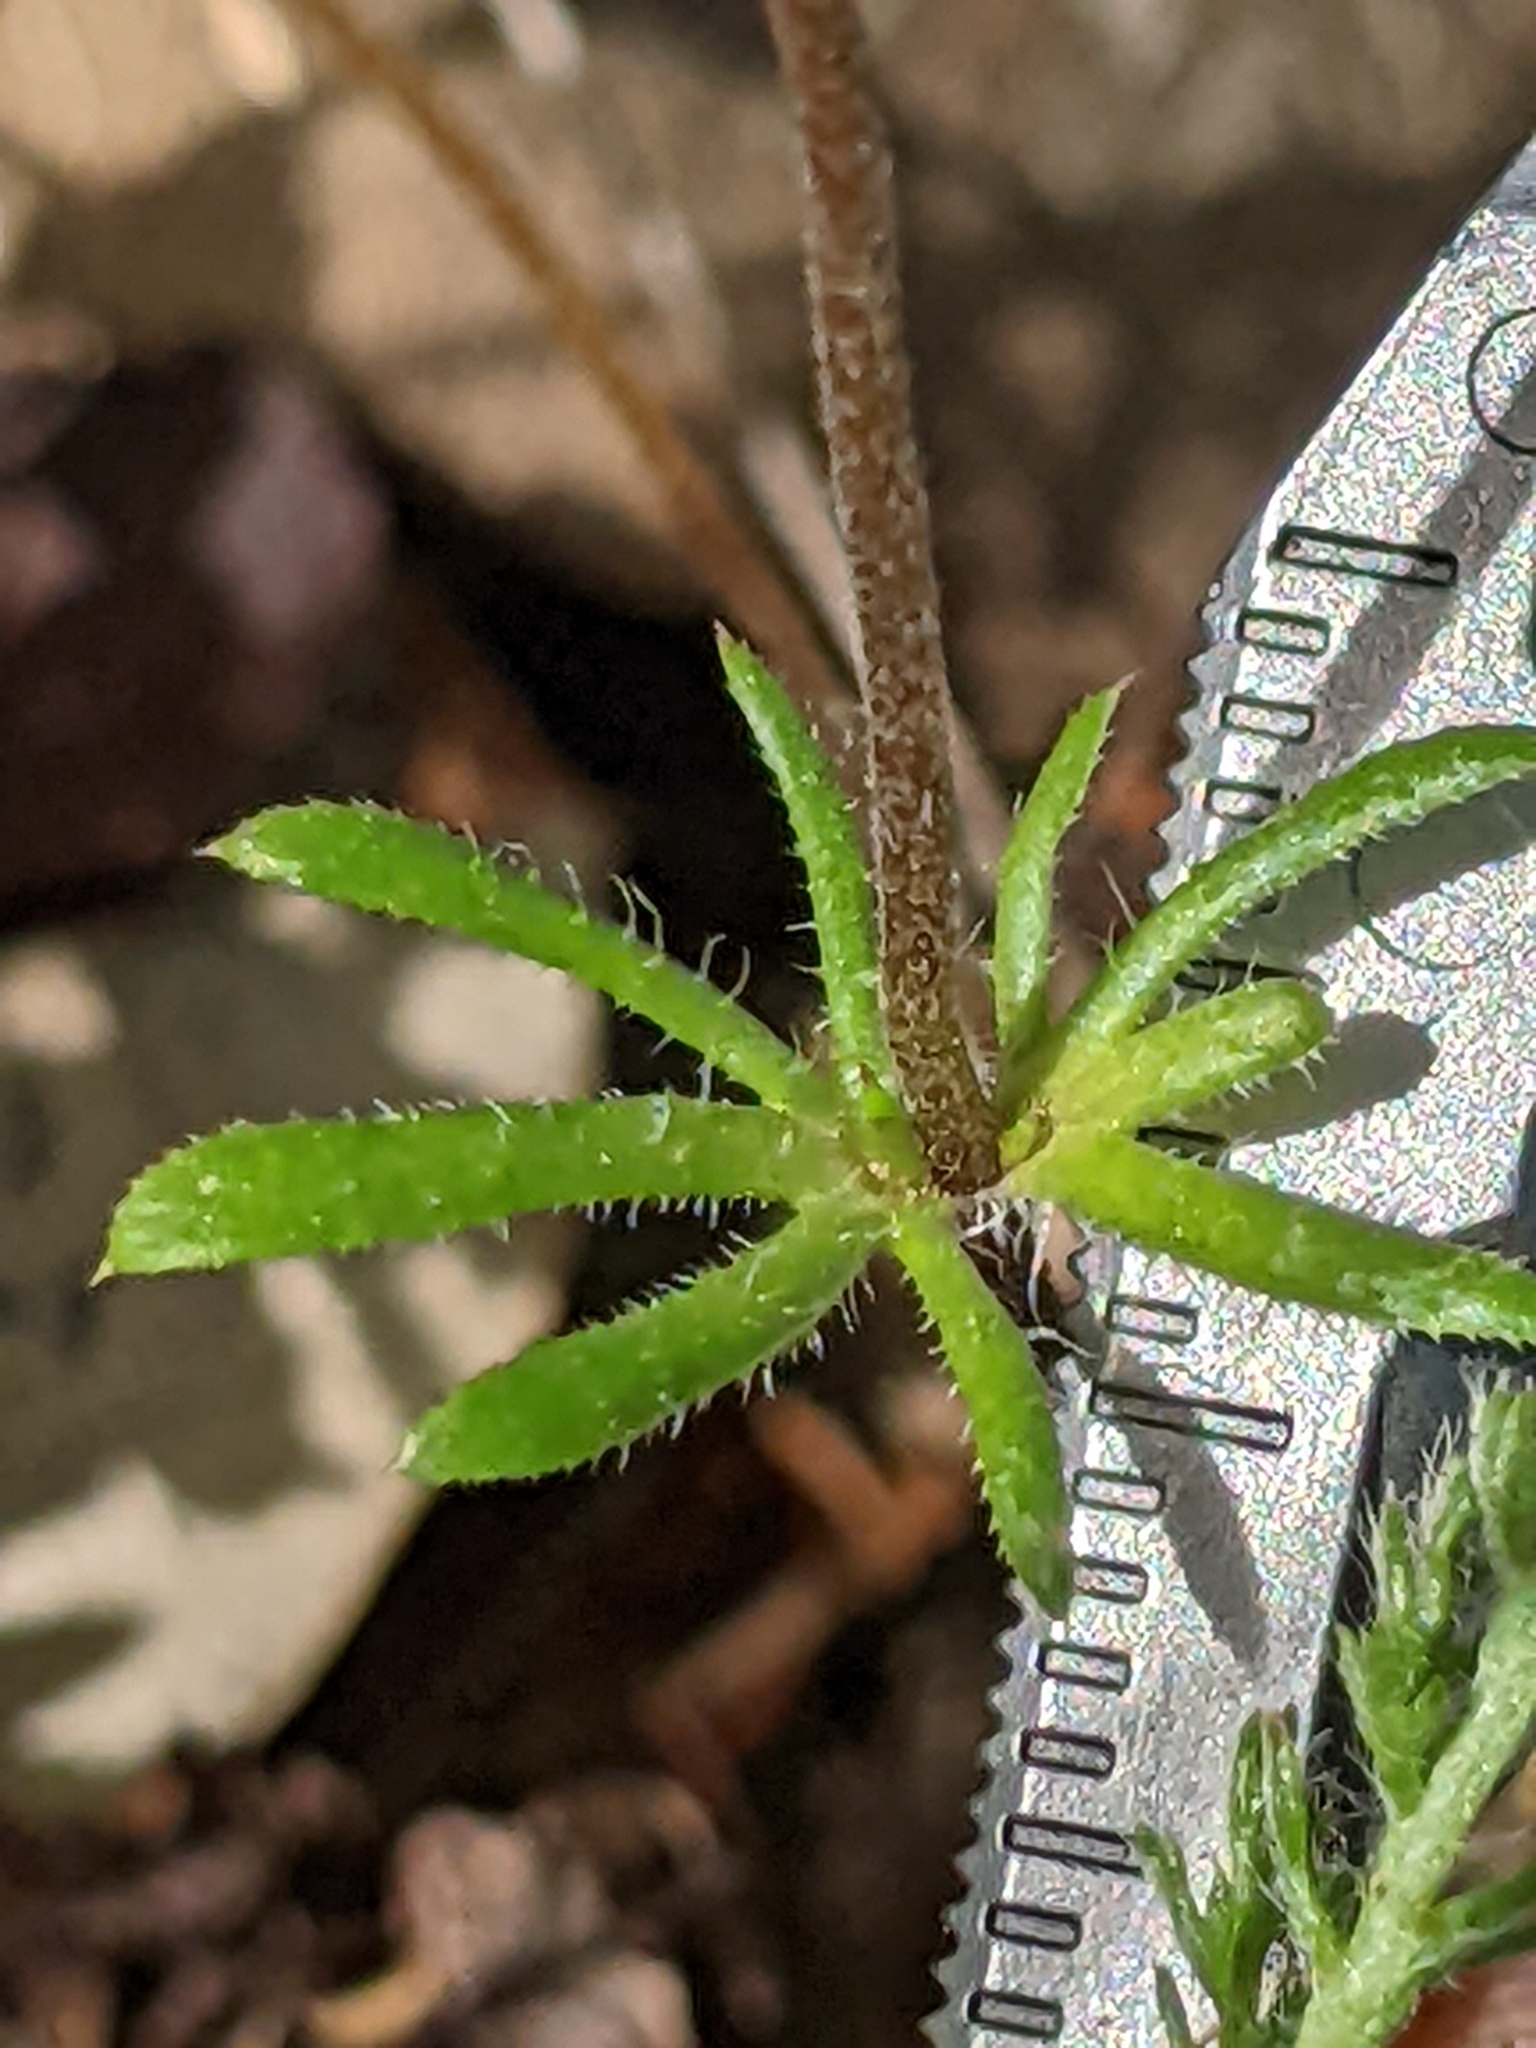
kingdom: Plantae
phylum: Tracheophyta
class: Magnoliopsida
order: Ericales
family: Polemoniaceae
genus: Leptosiphon
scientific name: Leptosiphon androsaceus
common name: False babystars
